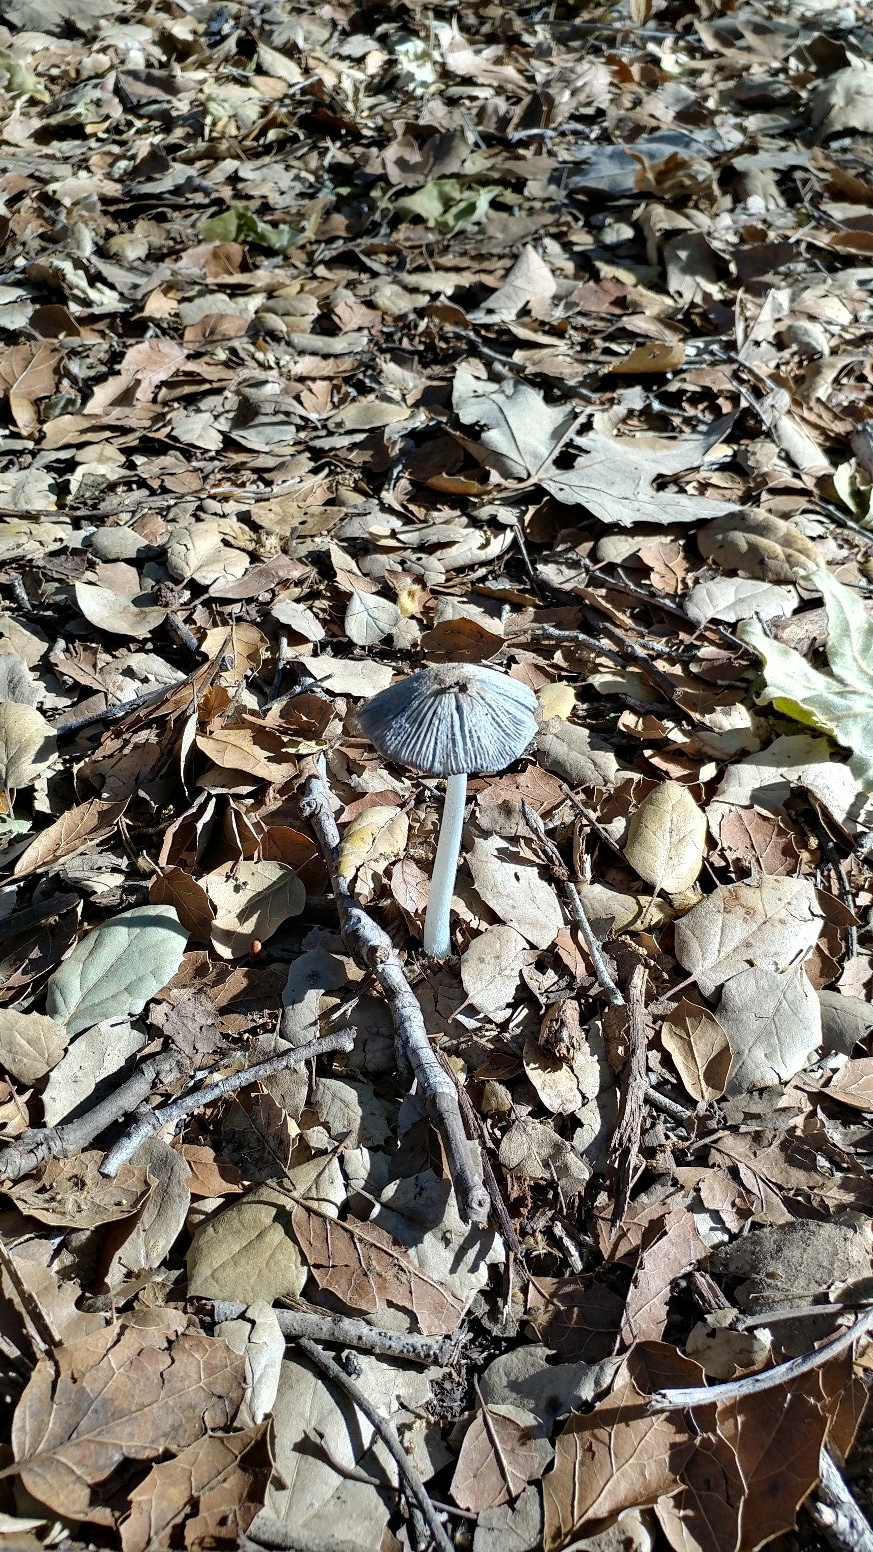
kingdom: Fungi
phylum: Basidiomycota
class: Agaricomycetes
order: Agaricales
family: Psathyrellaceae
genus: Coprinopsis
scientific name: Coprinopsis lagopus
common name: Hare'sfoot inkcap
